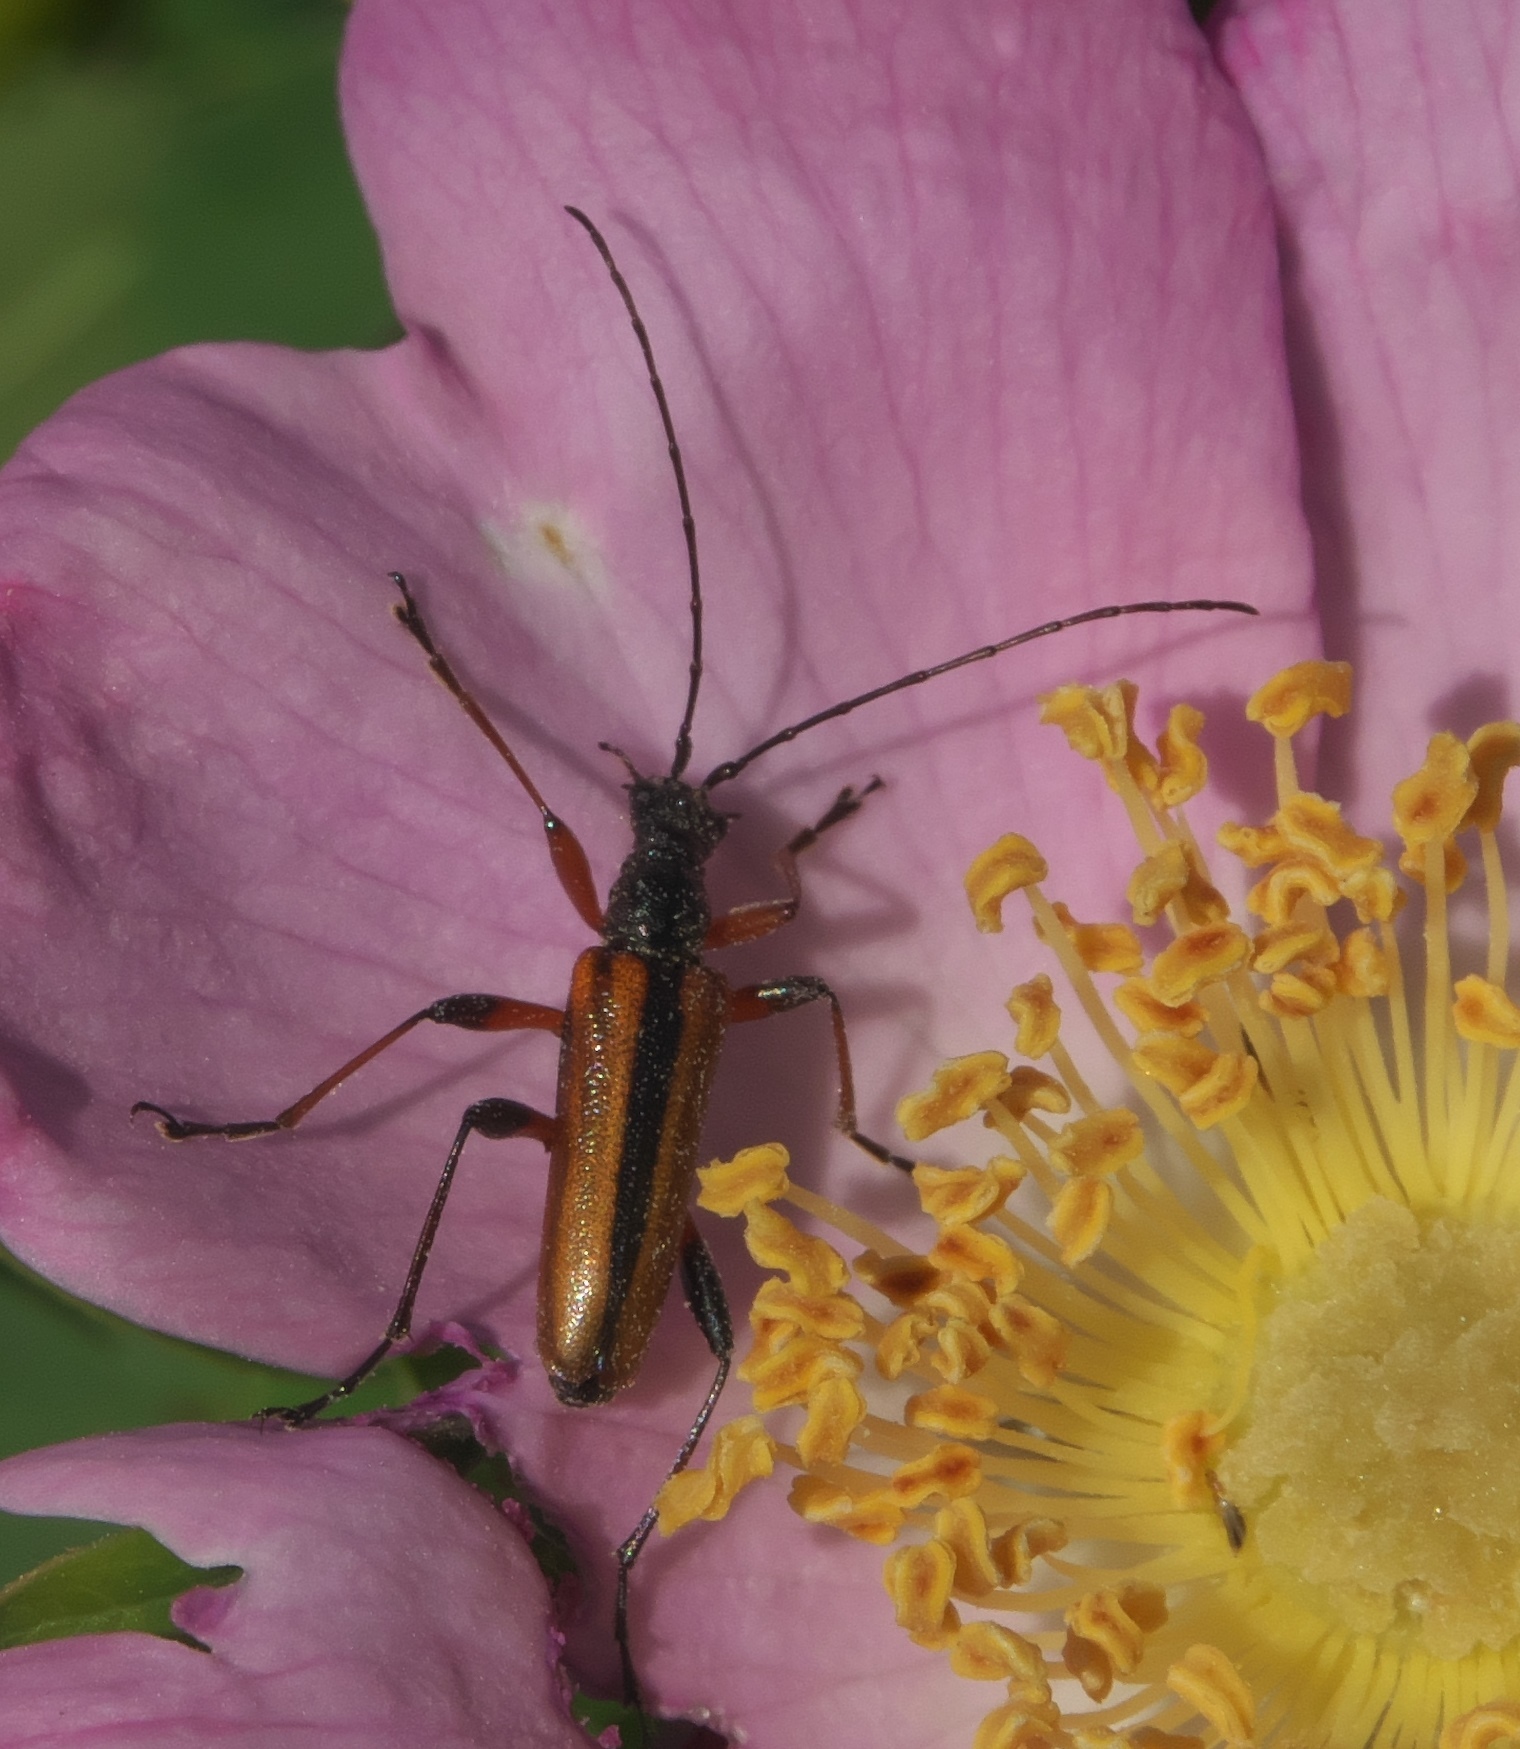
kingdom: Animalia
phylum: Arthropoda
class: Insecta
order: Coleoptera
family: Cerambycidae
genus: Cortodera
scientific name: Cortodera longicornis
